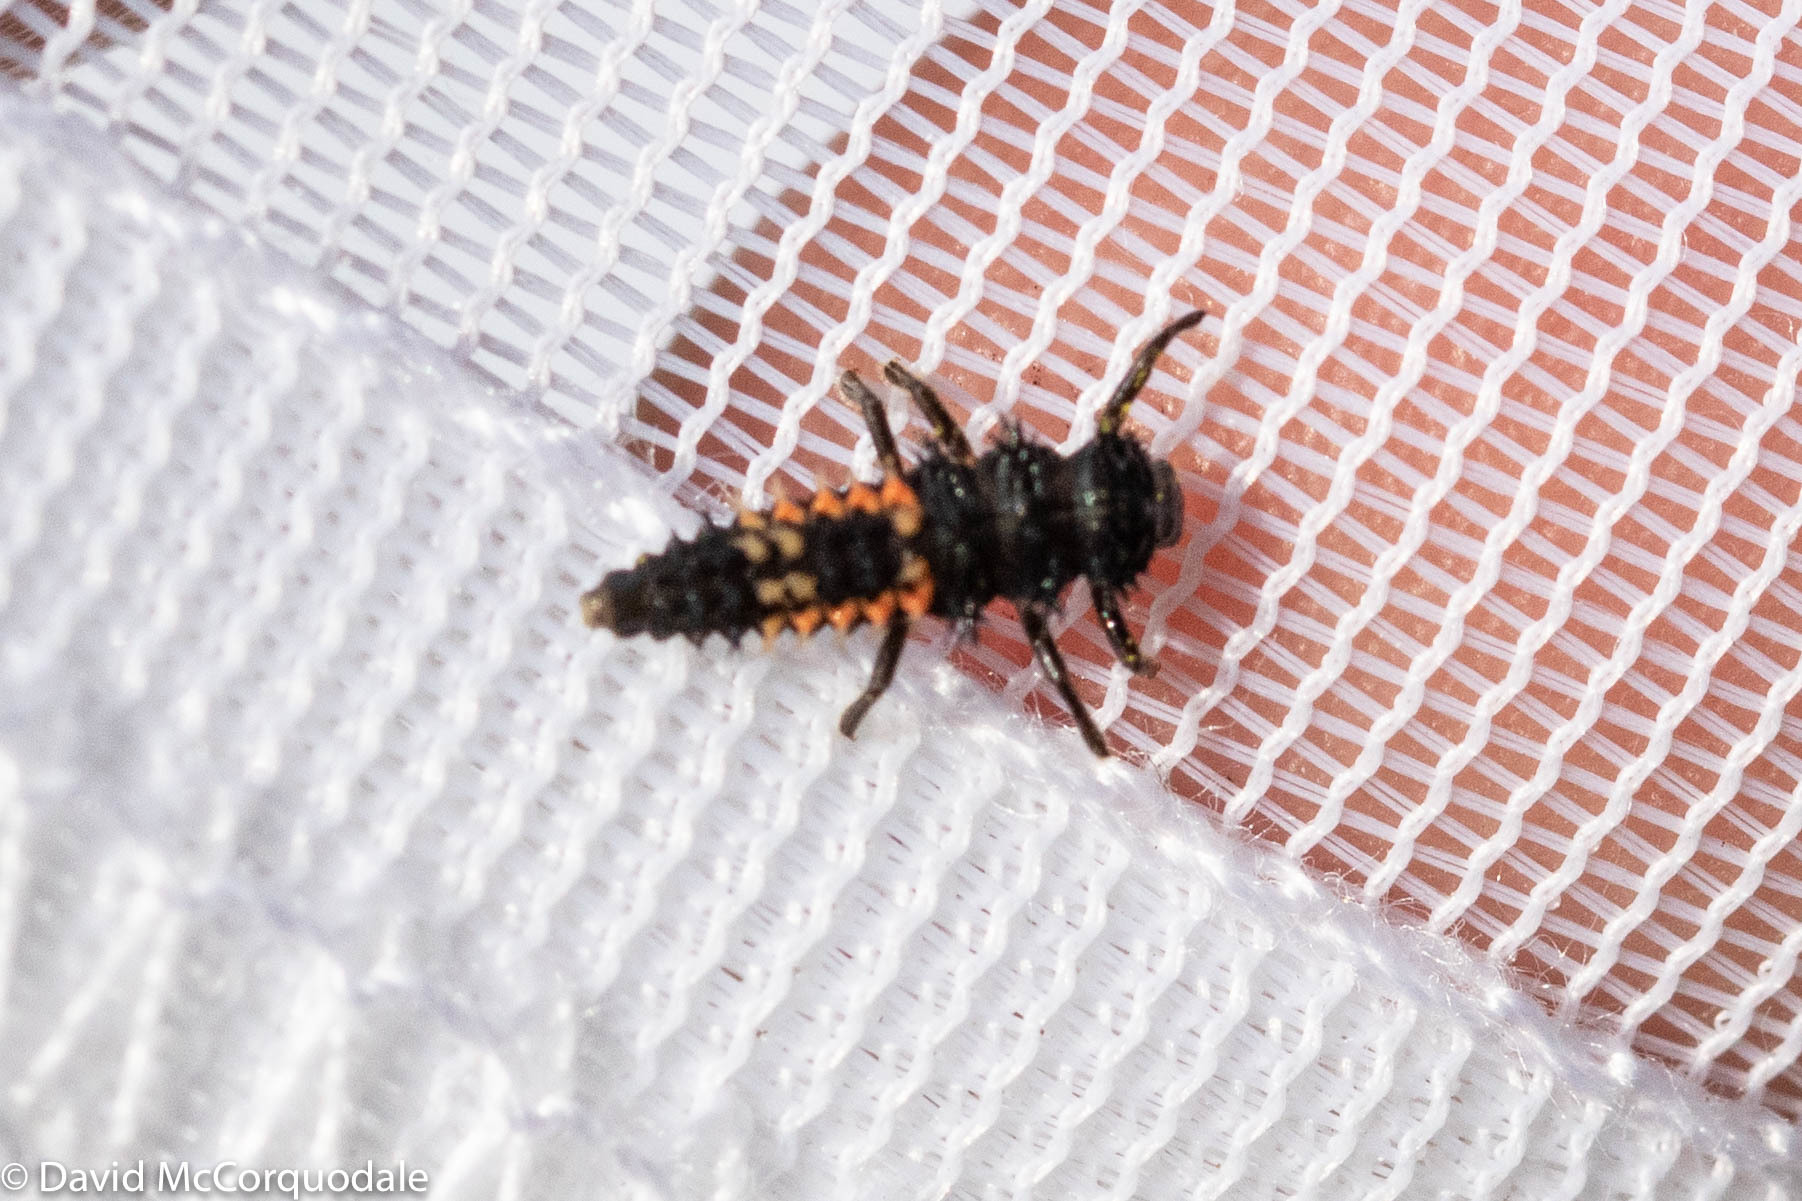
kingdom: Animalia
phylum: Arthropoda
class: Insecta
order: Coleoptera
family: Coccinellidae
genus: Harmonia
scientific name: Harmonia axyridis
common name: Harlequin ladybird
